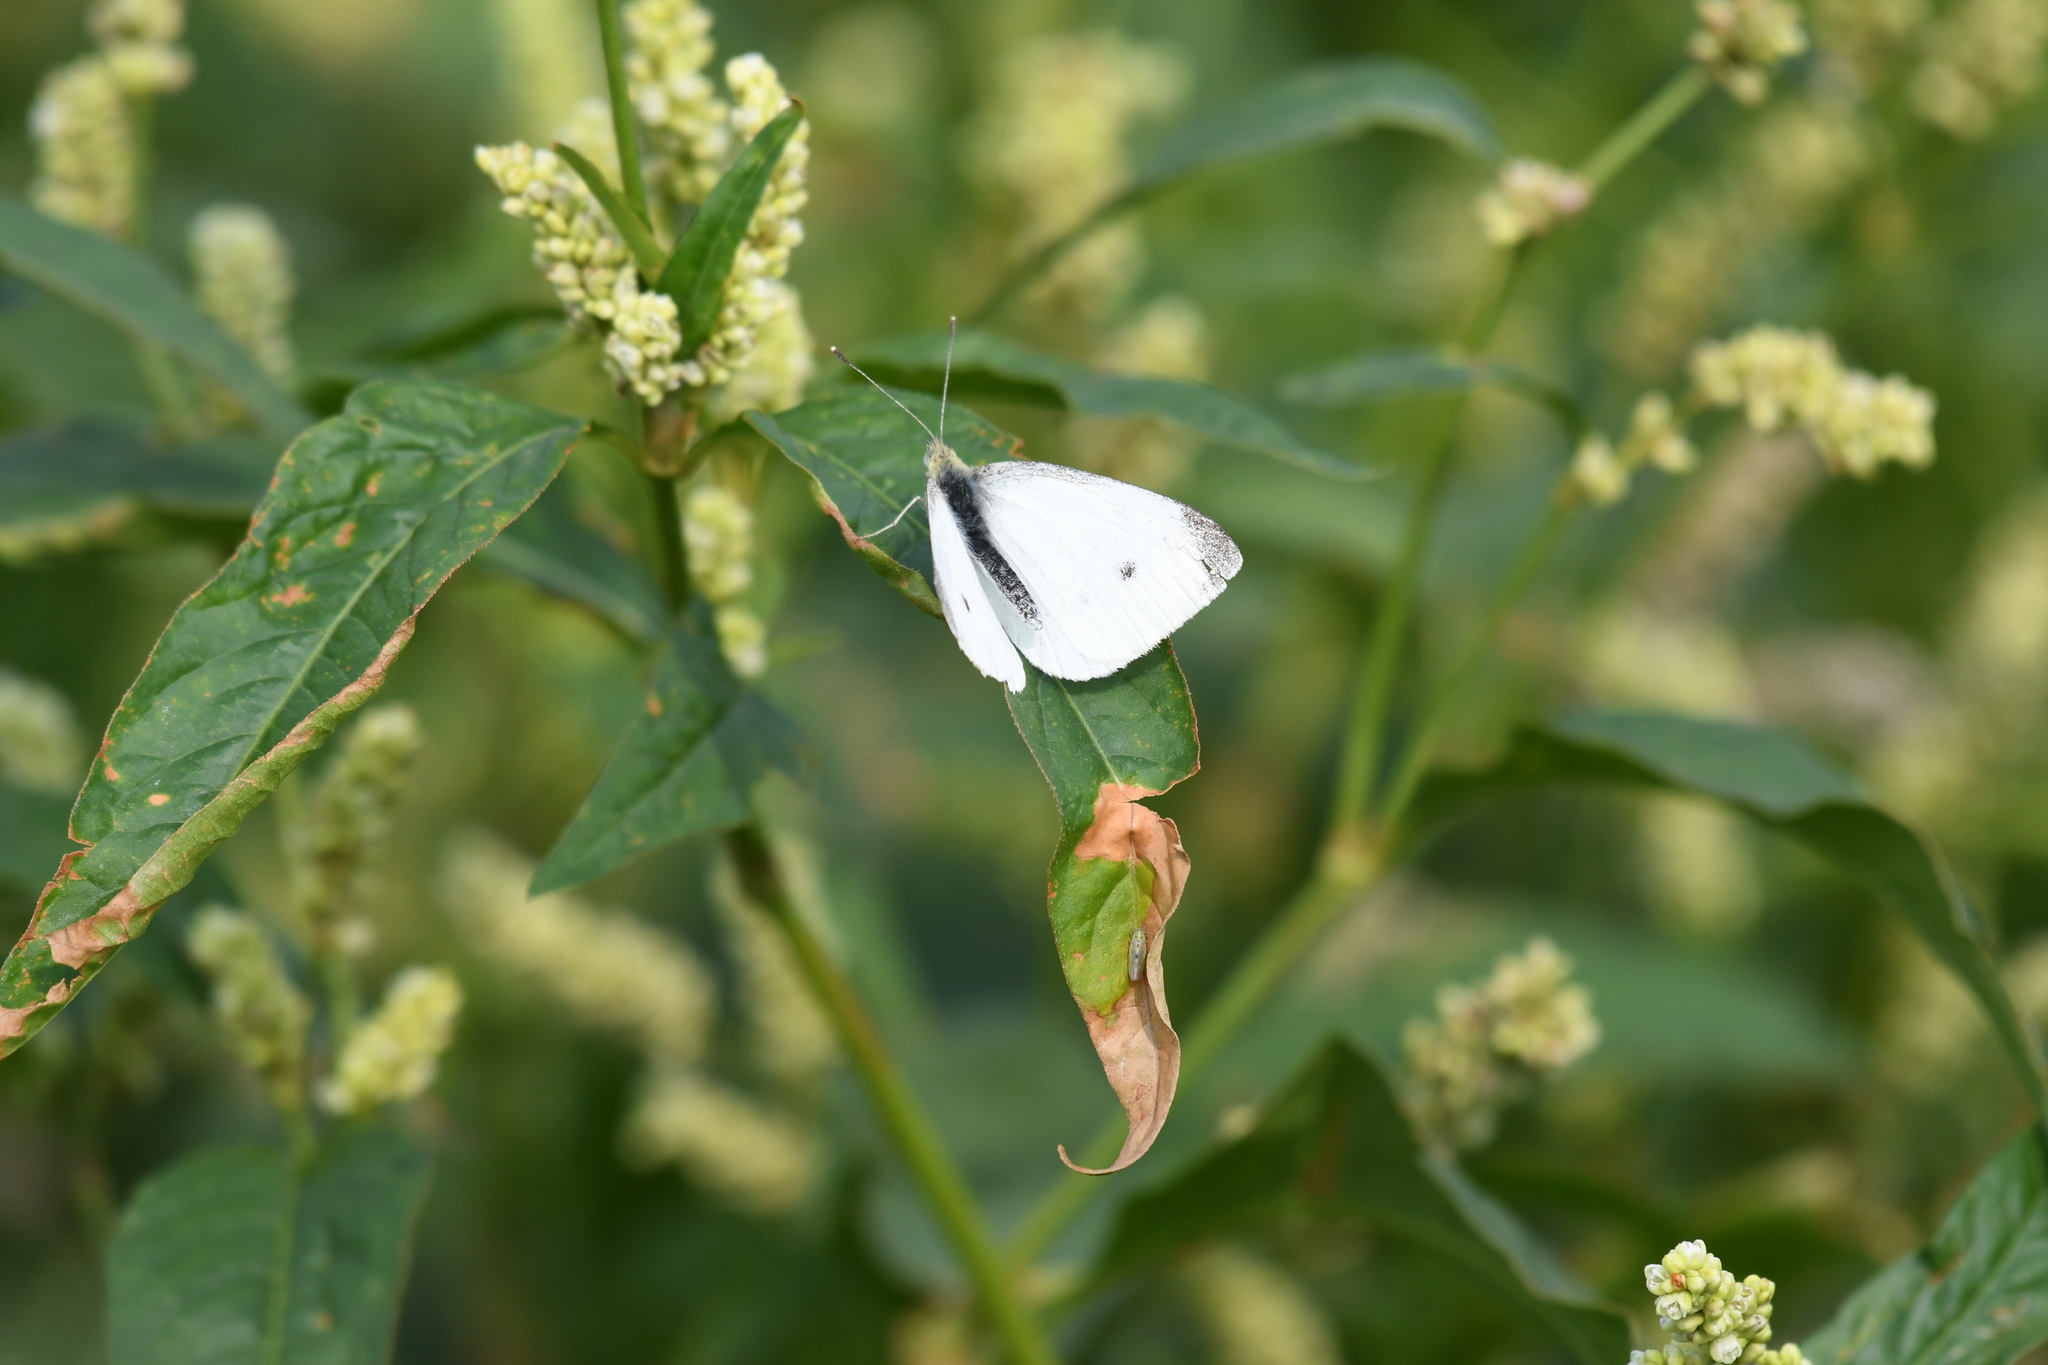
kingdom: Animalia
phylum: Arthropoda
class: Insecta
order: Lepidoptera
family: Pieridae
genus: Pieris
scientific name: Pieris rapae
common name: Small white
